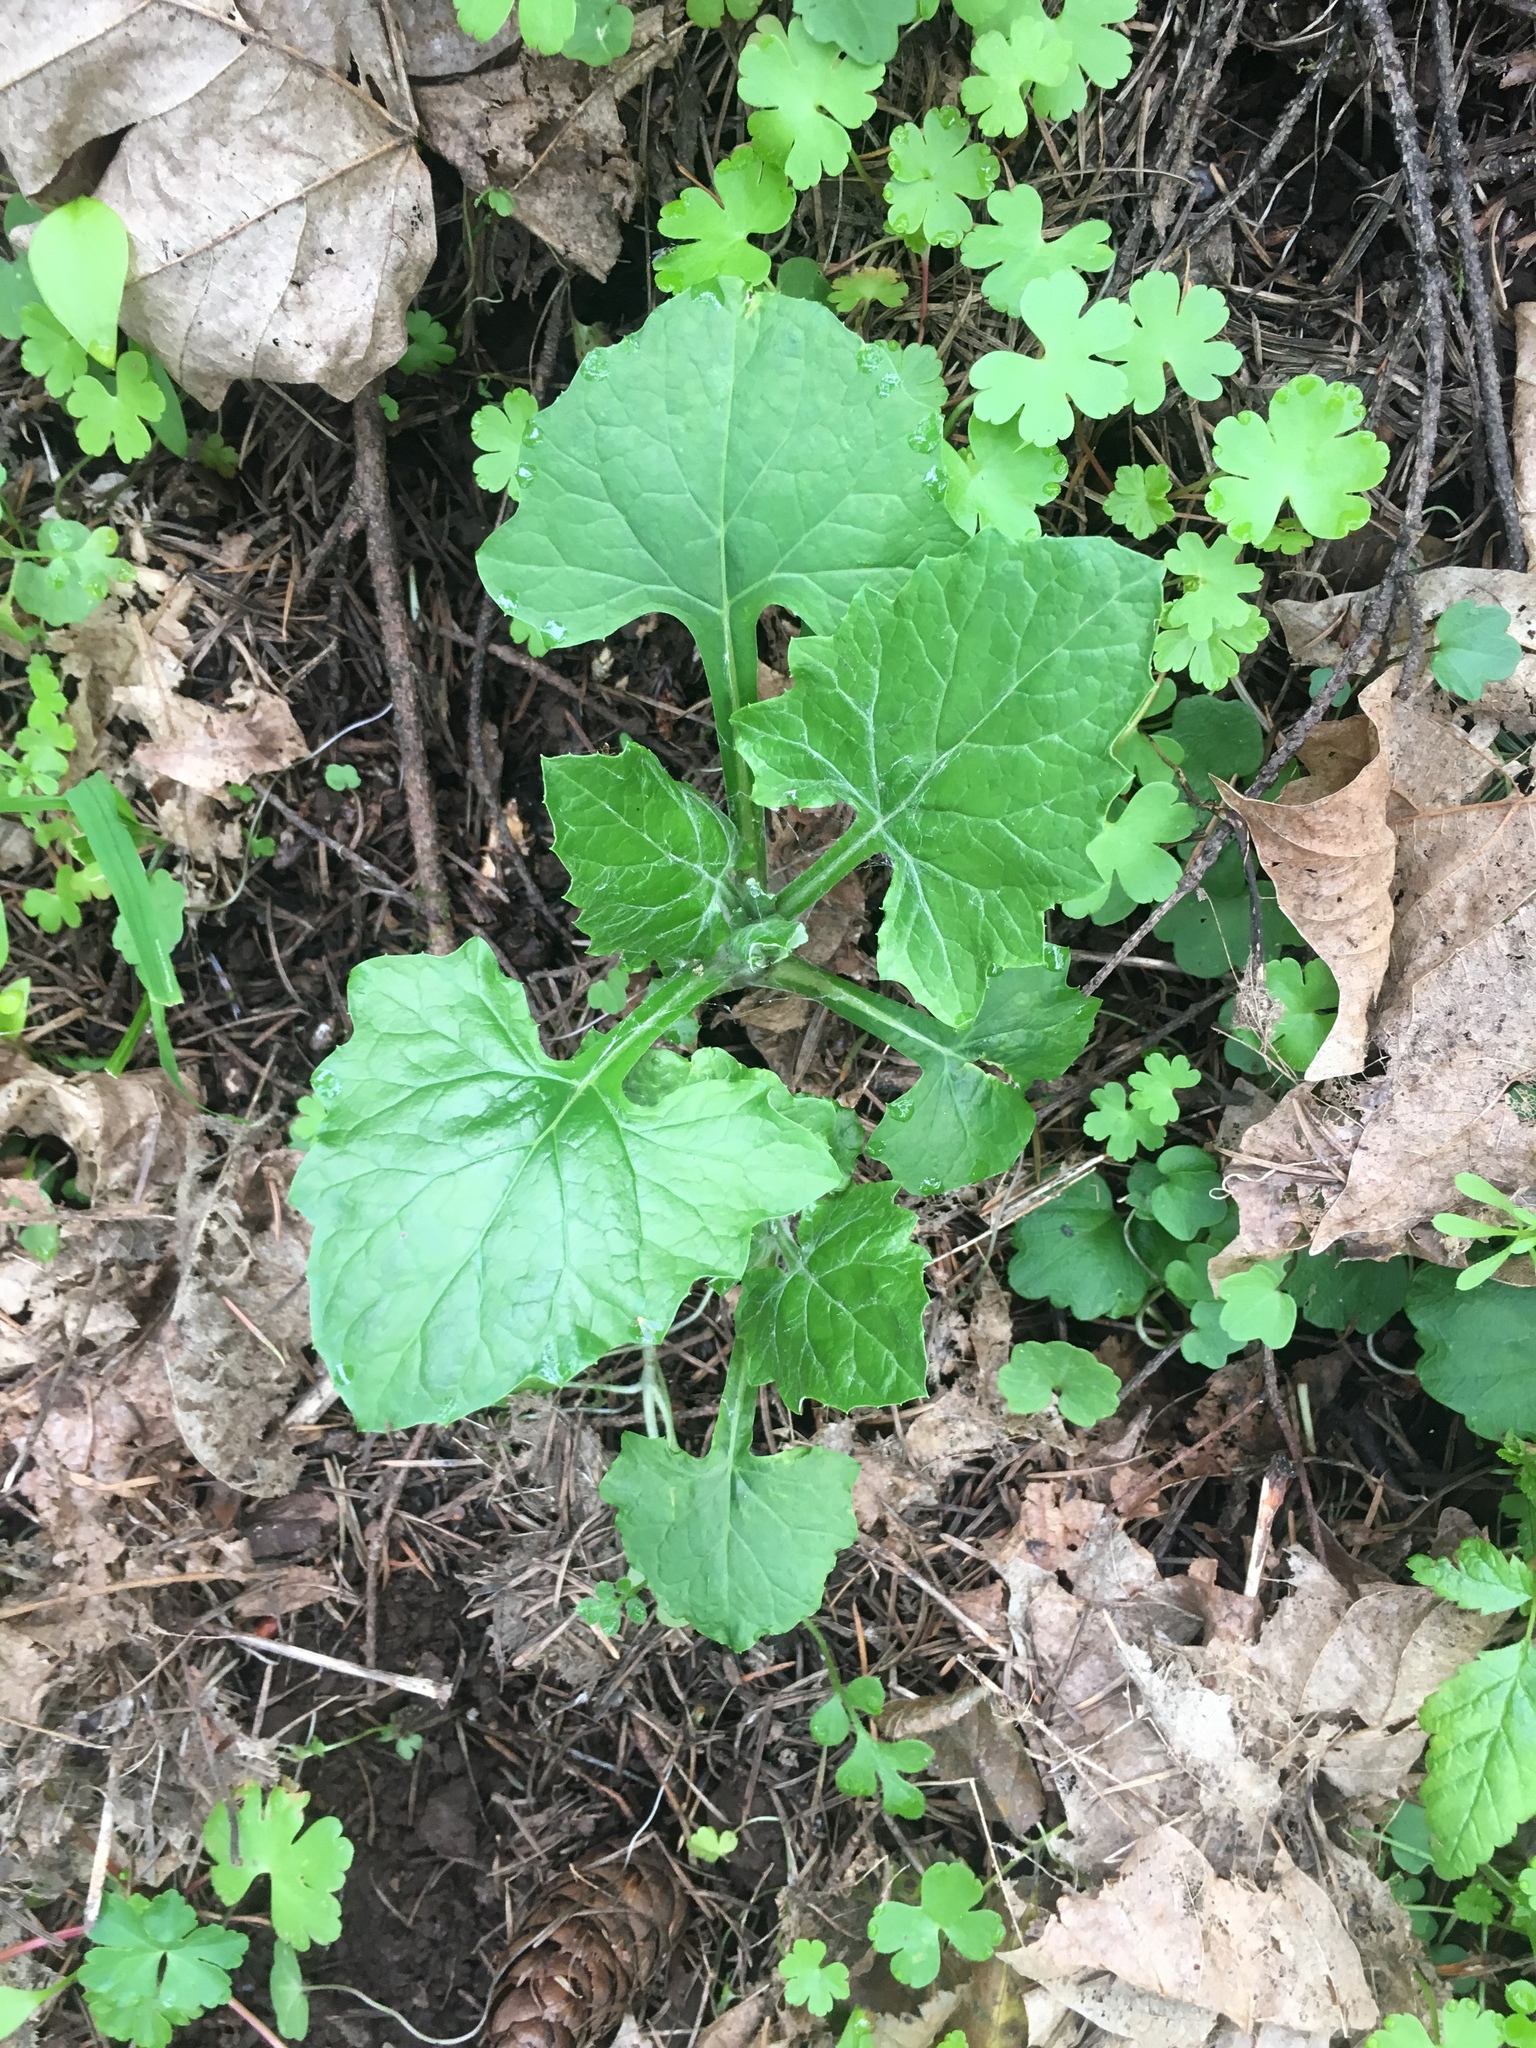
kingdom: Plantae
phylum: Tracheophyta
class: Magnoliopsida
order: Asterales
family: Asteraceae
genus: Adenocaulon
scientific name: Adenocaulon bicolor
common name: Trailplant
